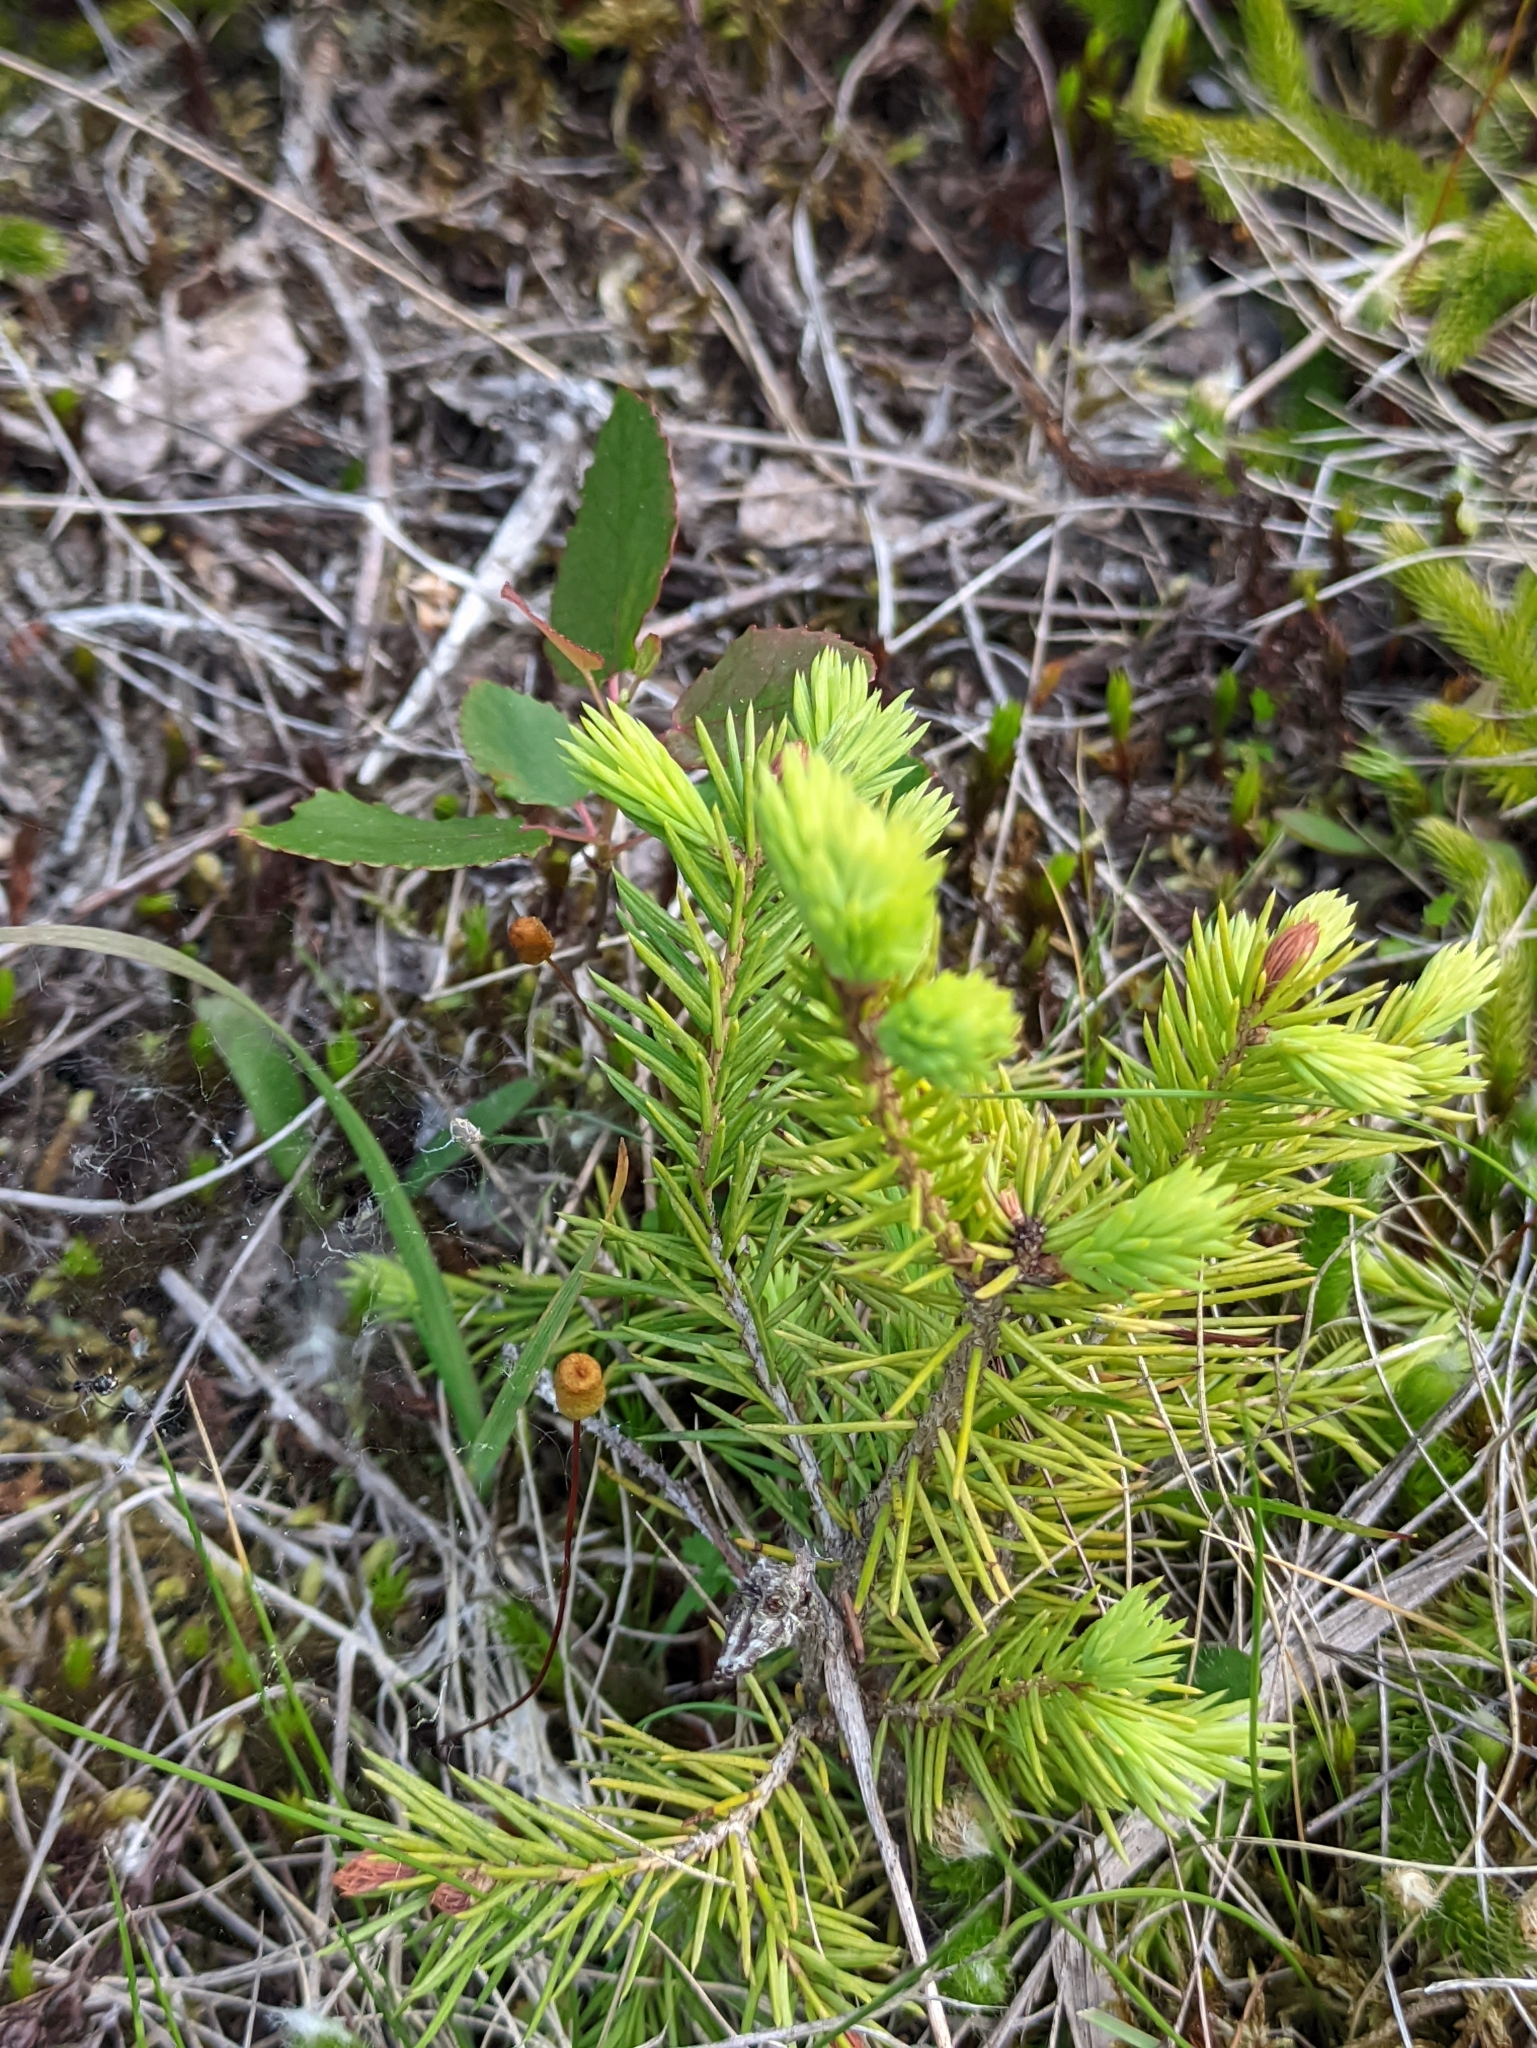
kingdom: Plantae
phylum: Tracheophyta
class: Pinopsida
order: Pinales
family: Pinaceae
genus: Picea
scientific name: Picea abies
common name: Norway spruce
